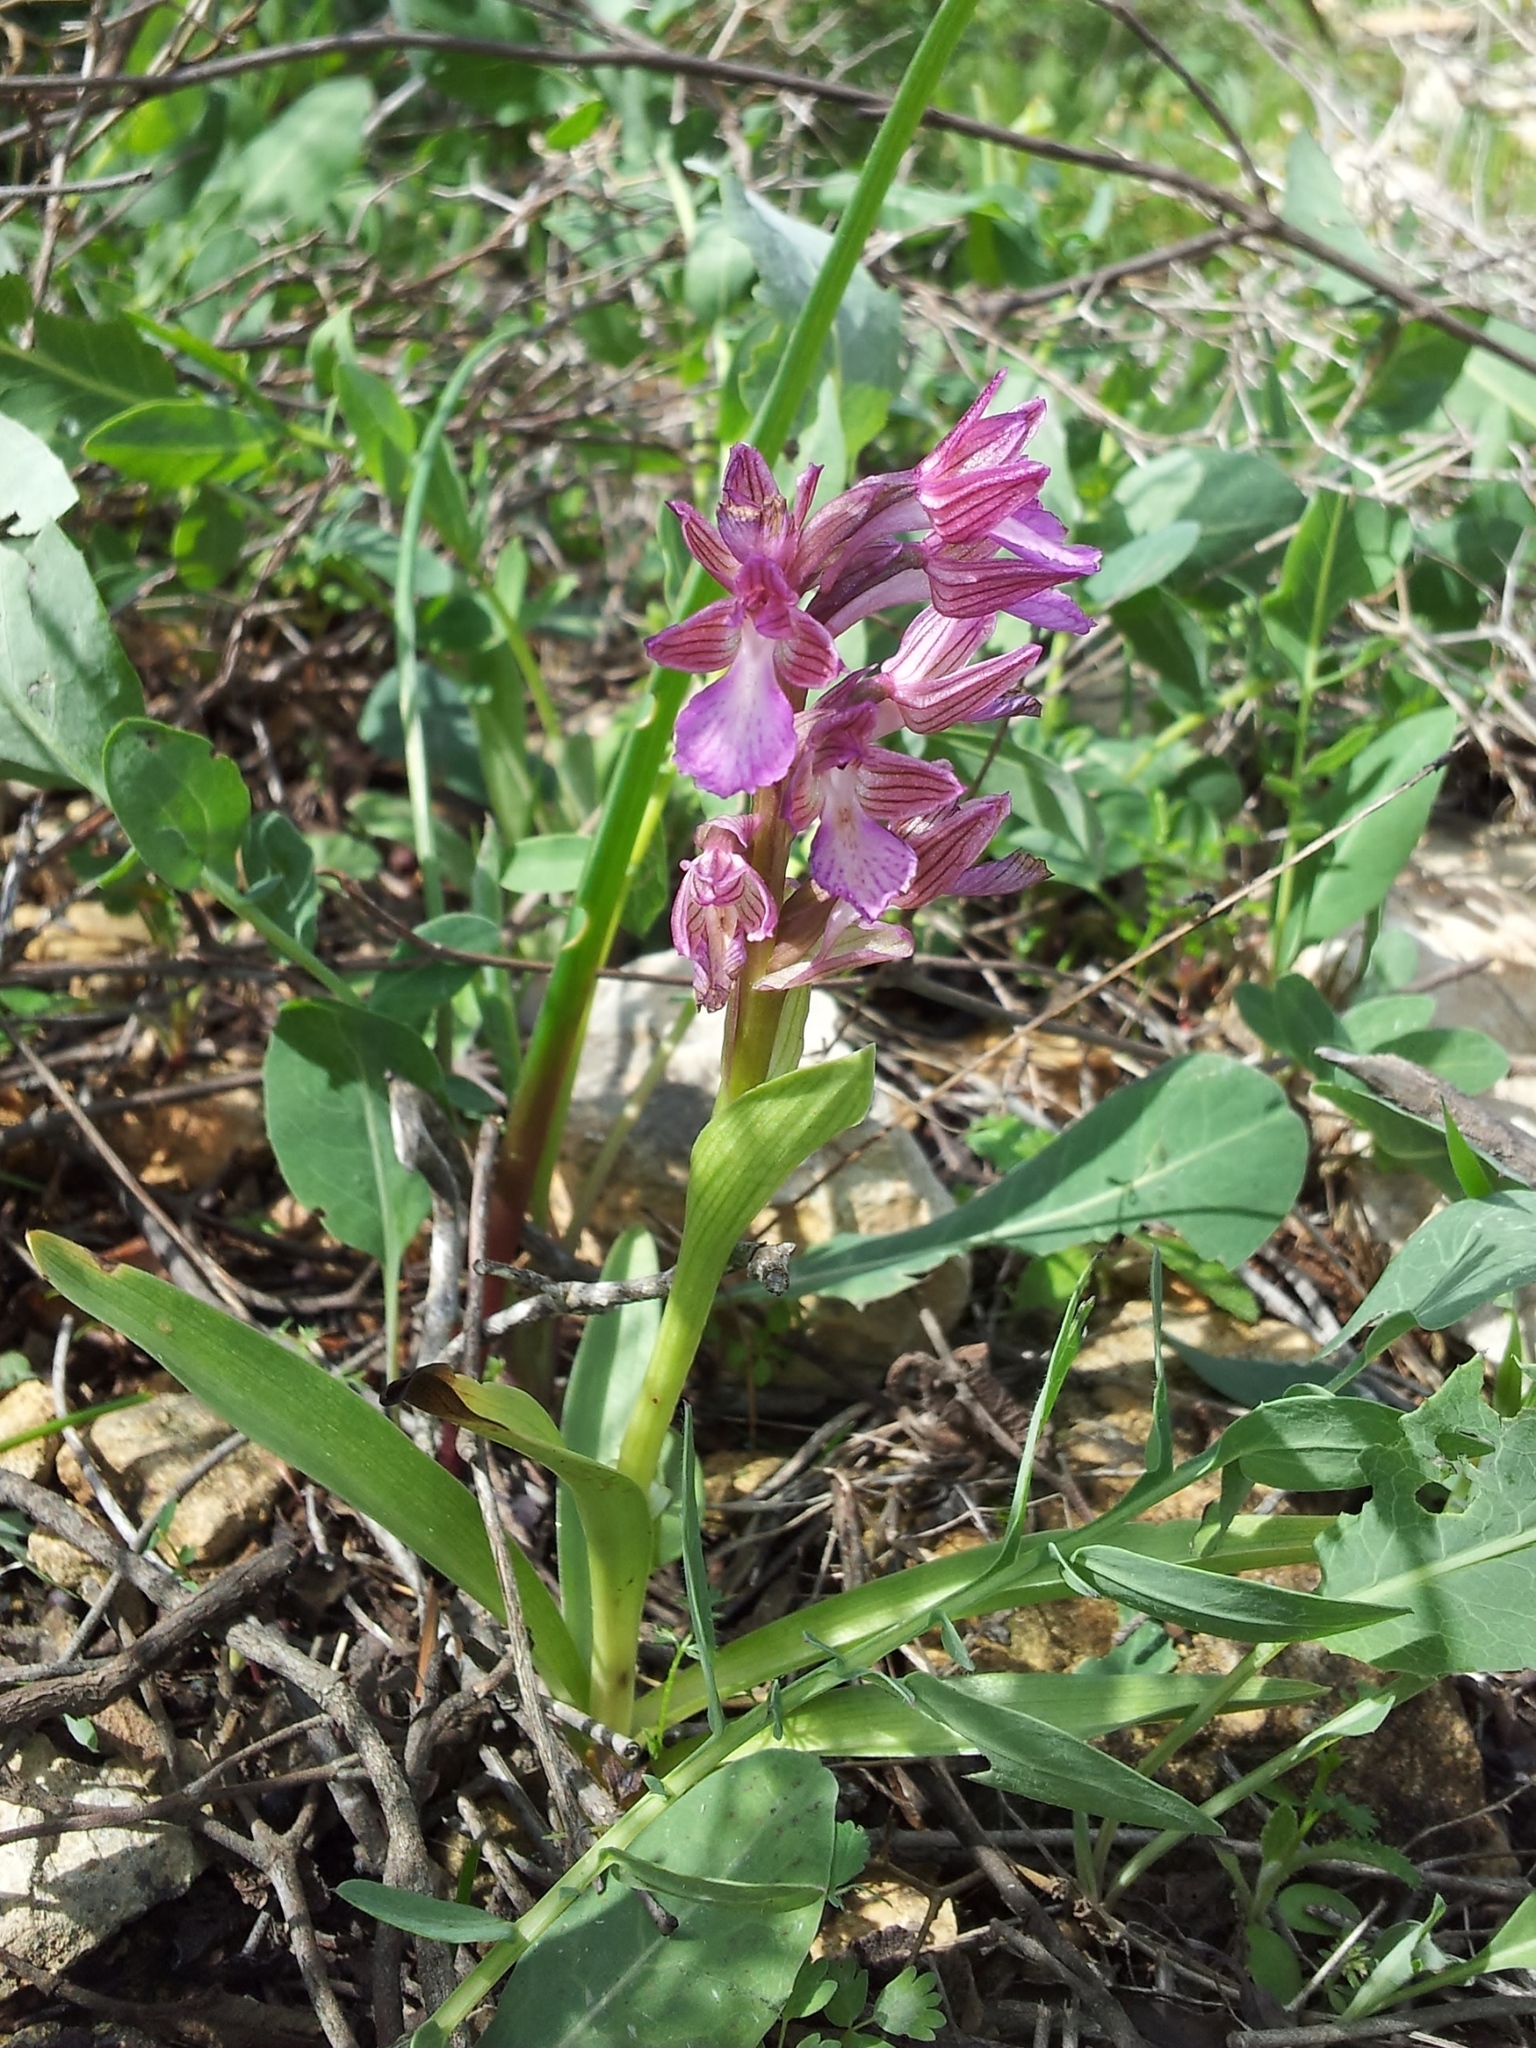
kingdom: Plantae
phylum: Tracheophyta
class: Liliopsida
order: Asparagales
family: Orchidaceae
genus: Anacamptis
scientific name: Anacamptis papilionacea
